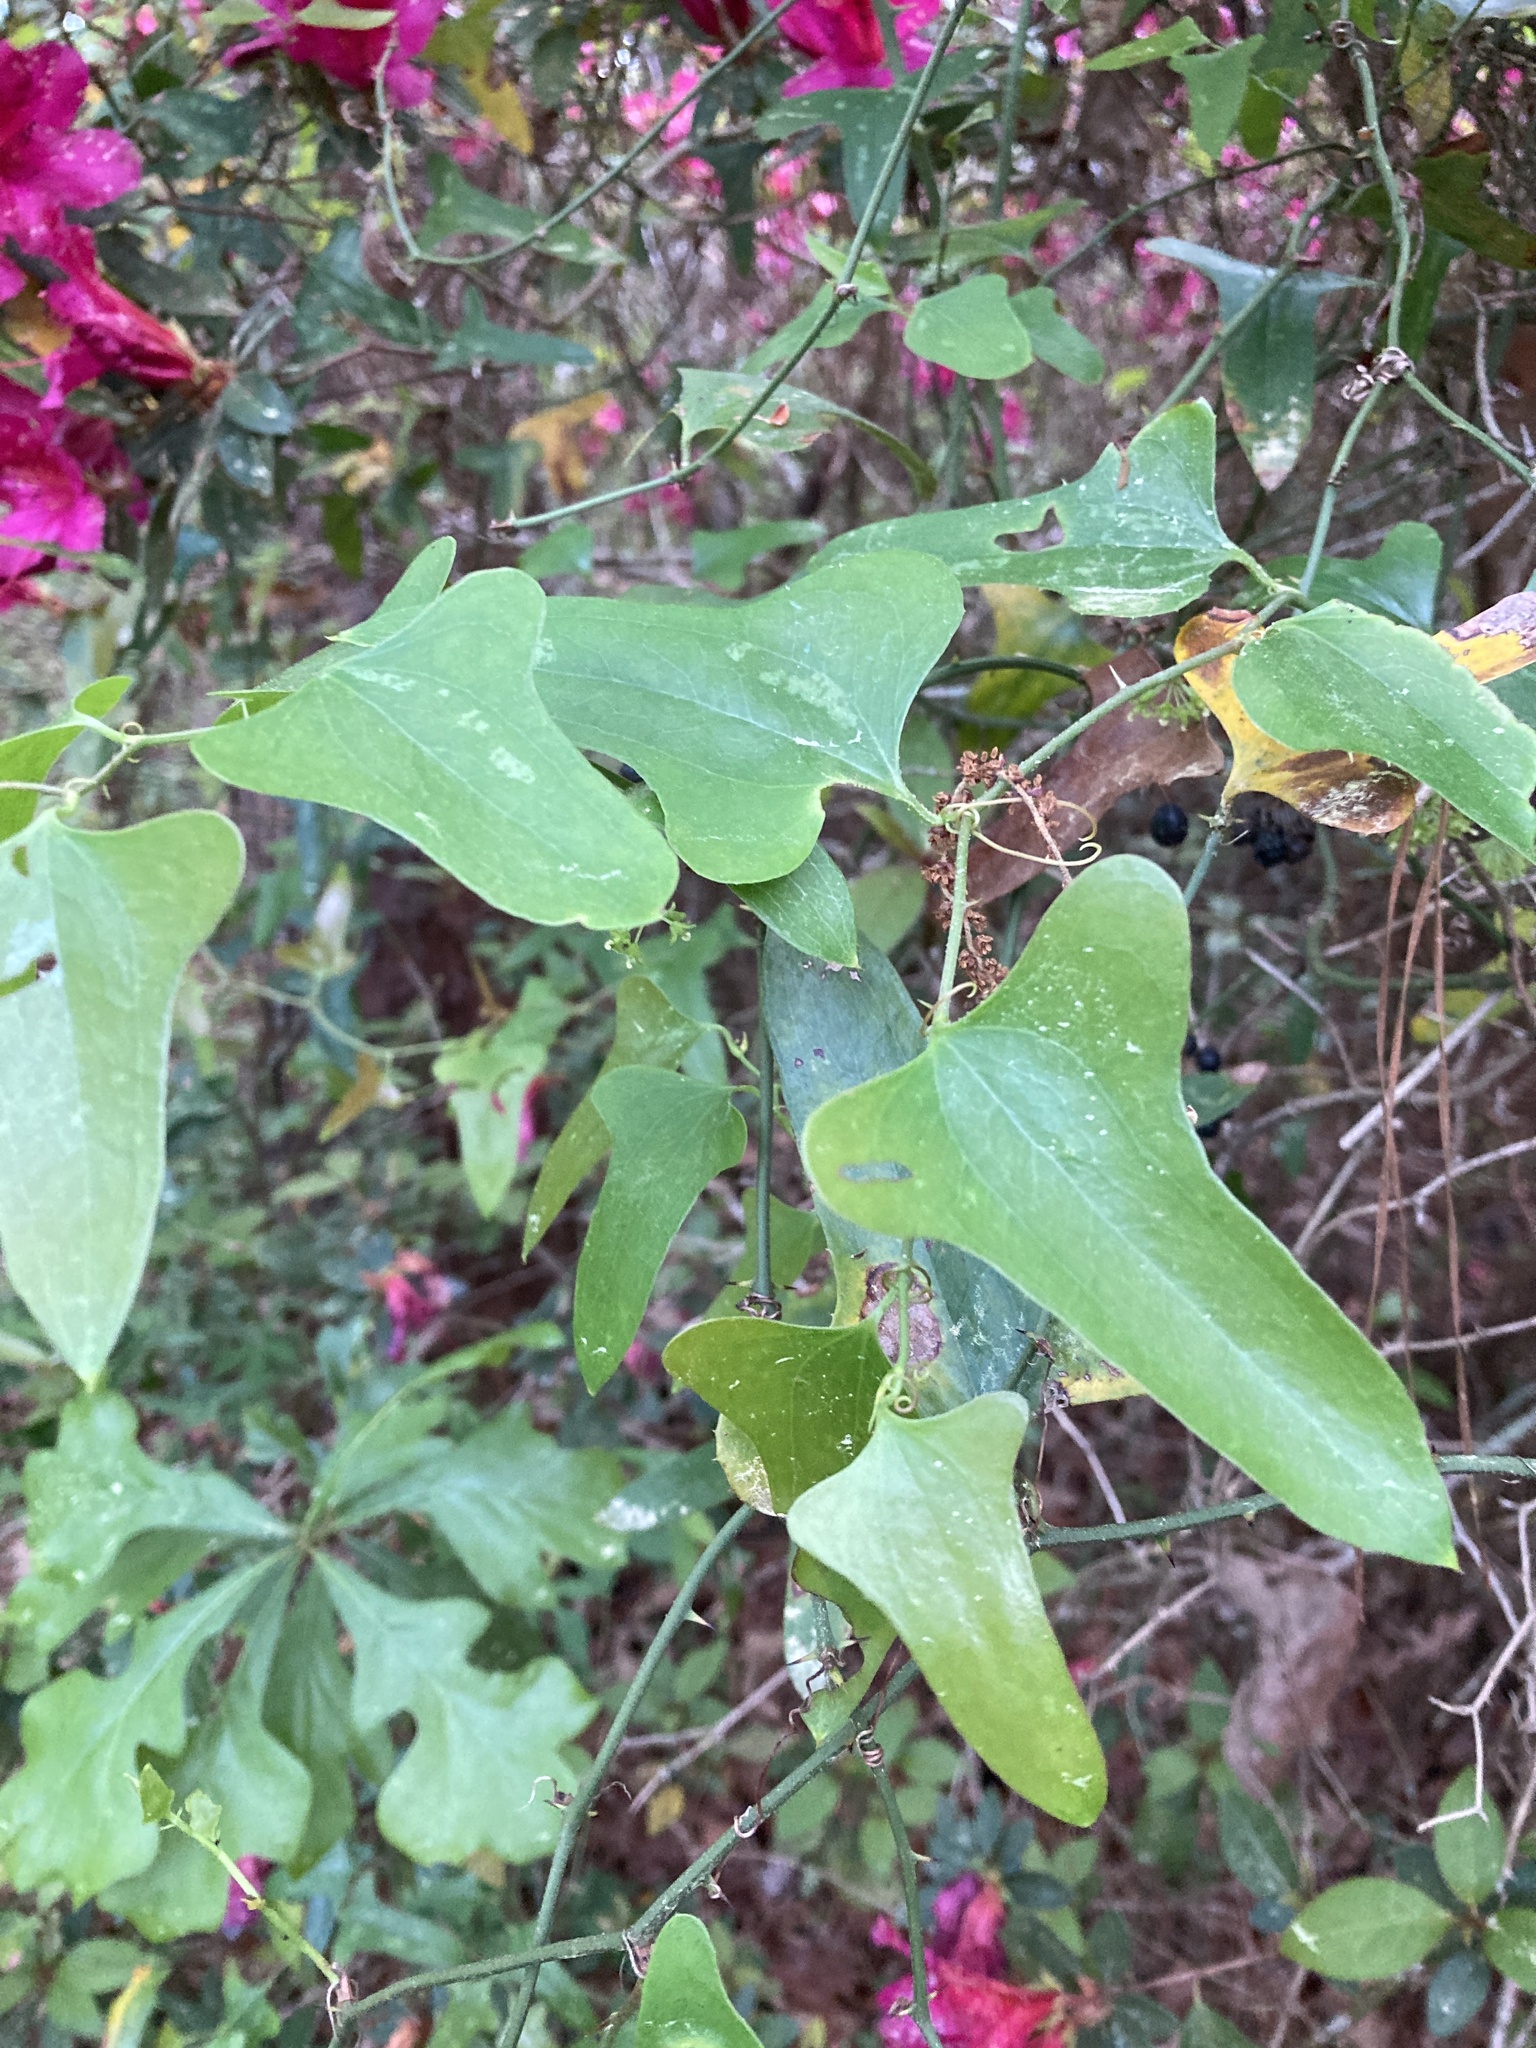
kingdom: Plantae
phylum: Tracheophyta
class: Liliopsida
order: Liliales
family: Smilacaceae
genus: Smilax
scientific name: Smilax bona-nox
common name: Catbrier
